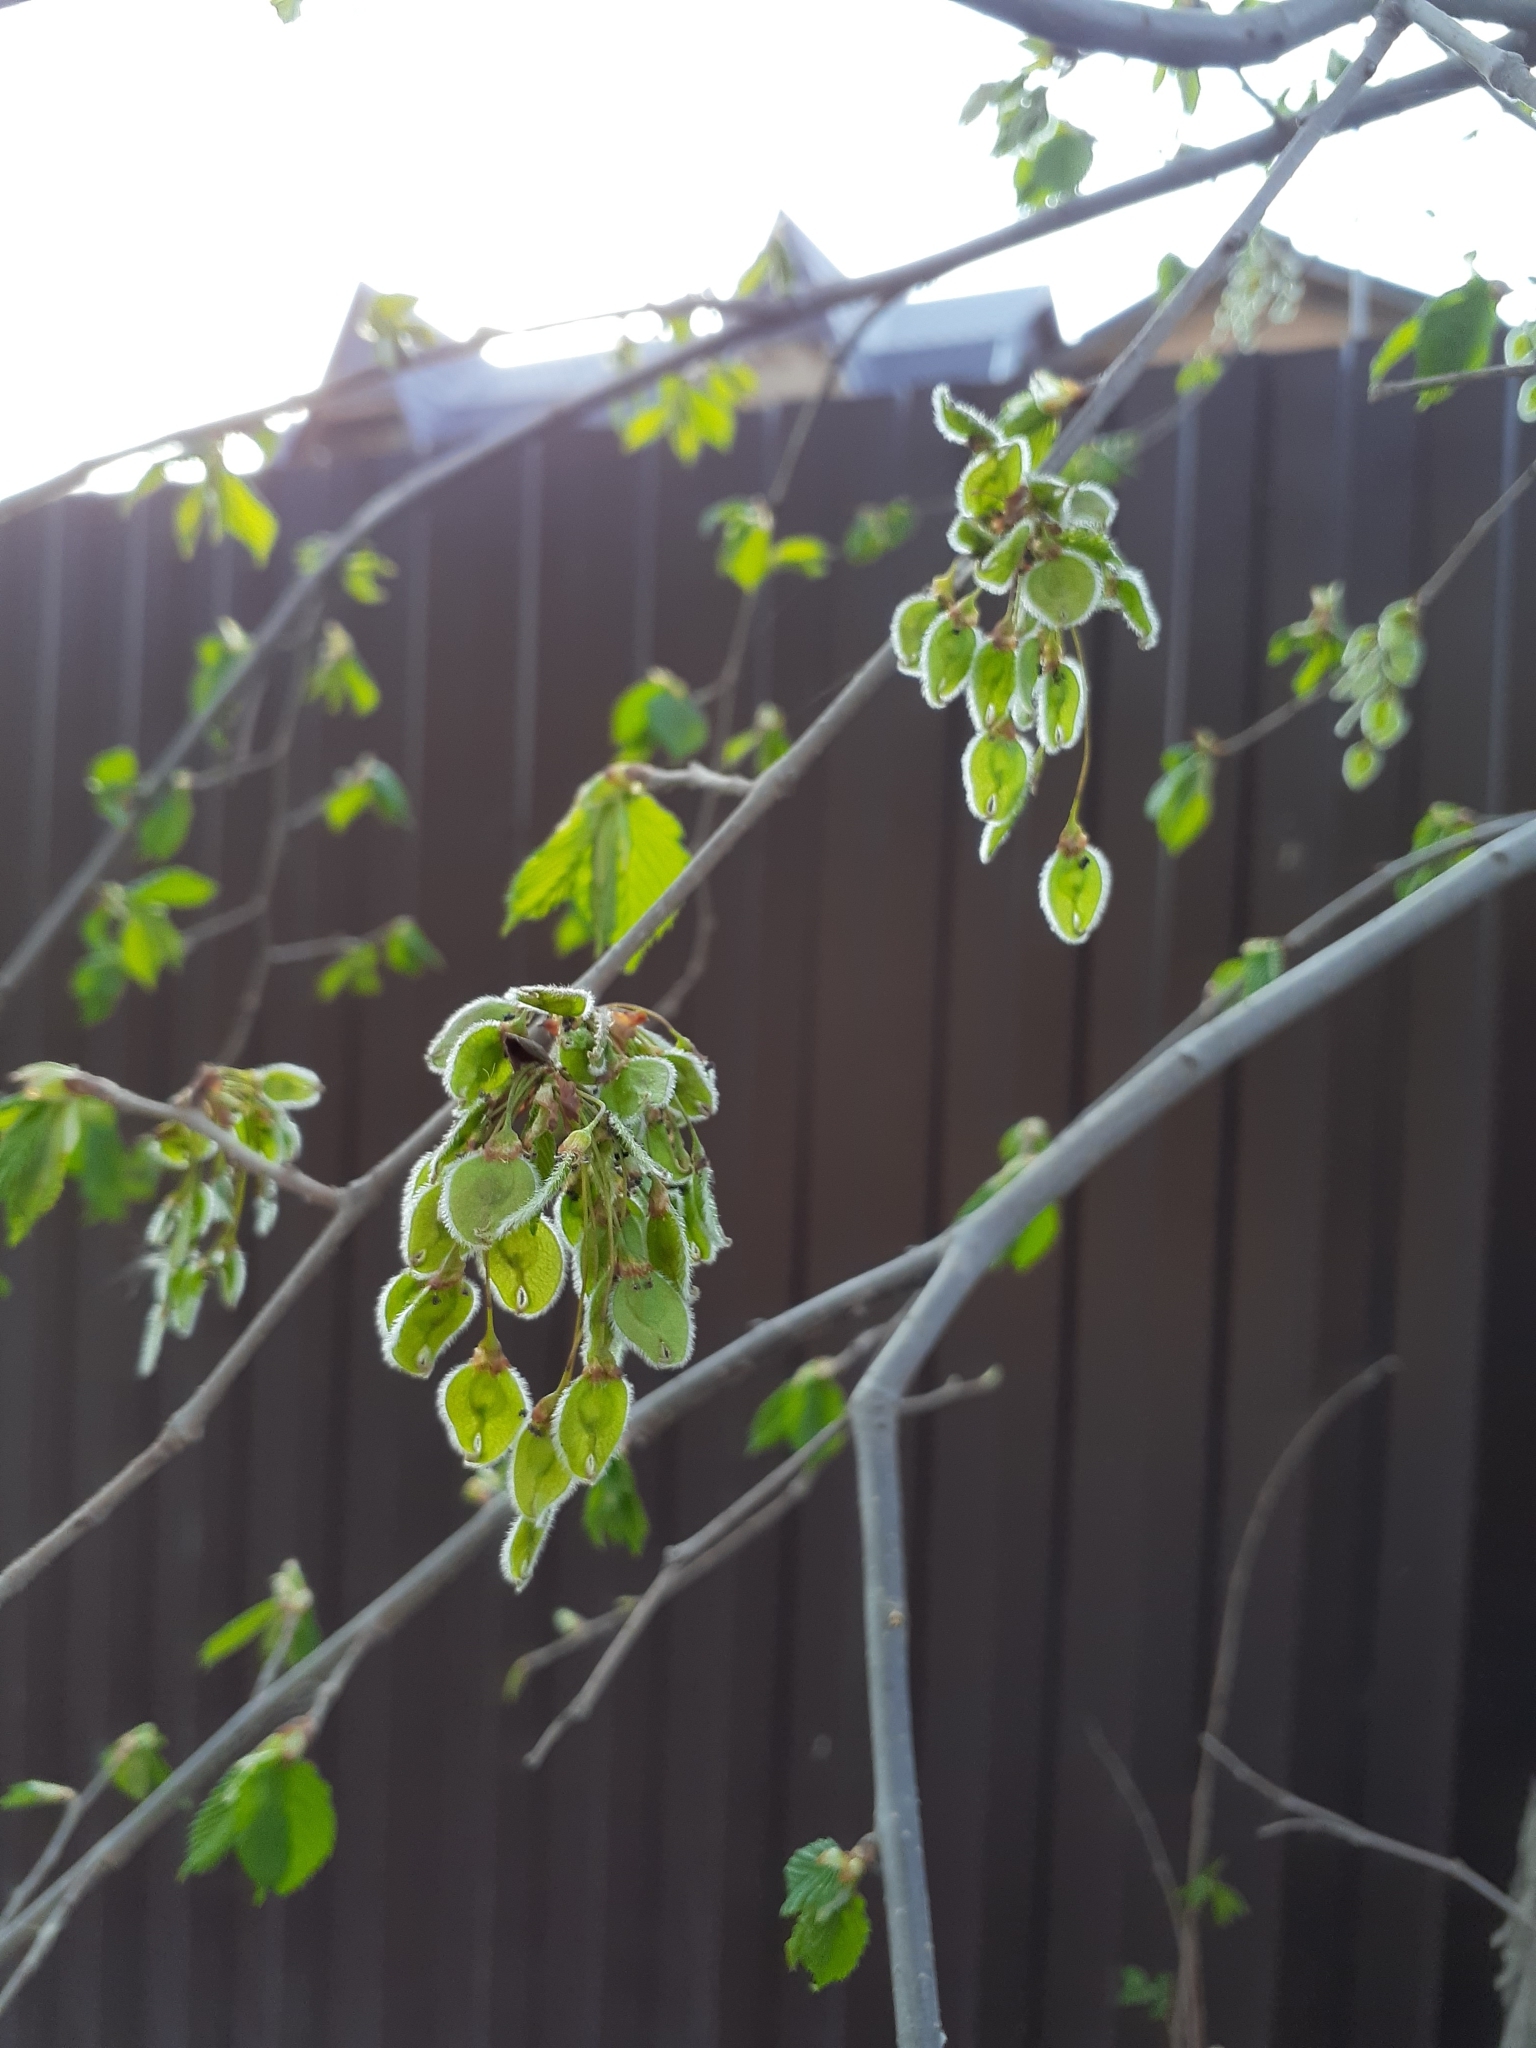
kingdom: Plantae
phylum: Tracheophyta
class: Magnoliopsida
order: Rosales
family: Ulmaceae
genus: Ulmus
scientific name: Ulmus laevis
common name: European white-elm
